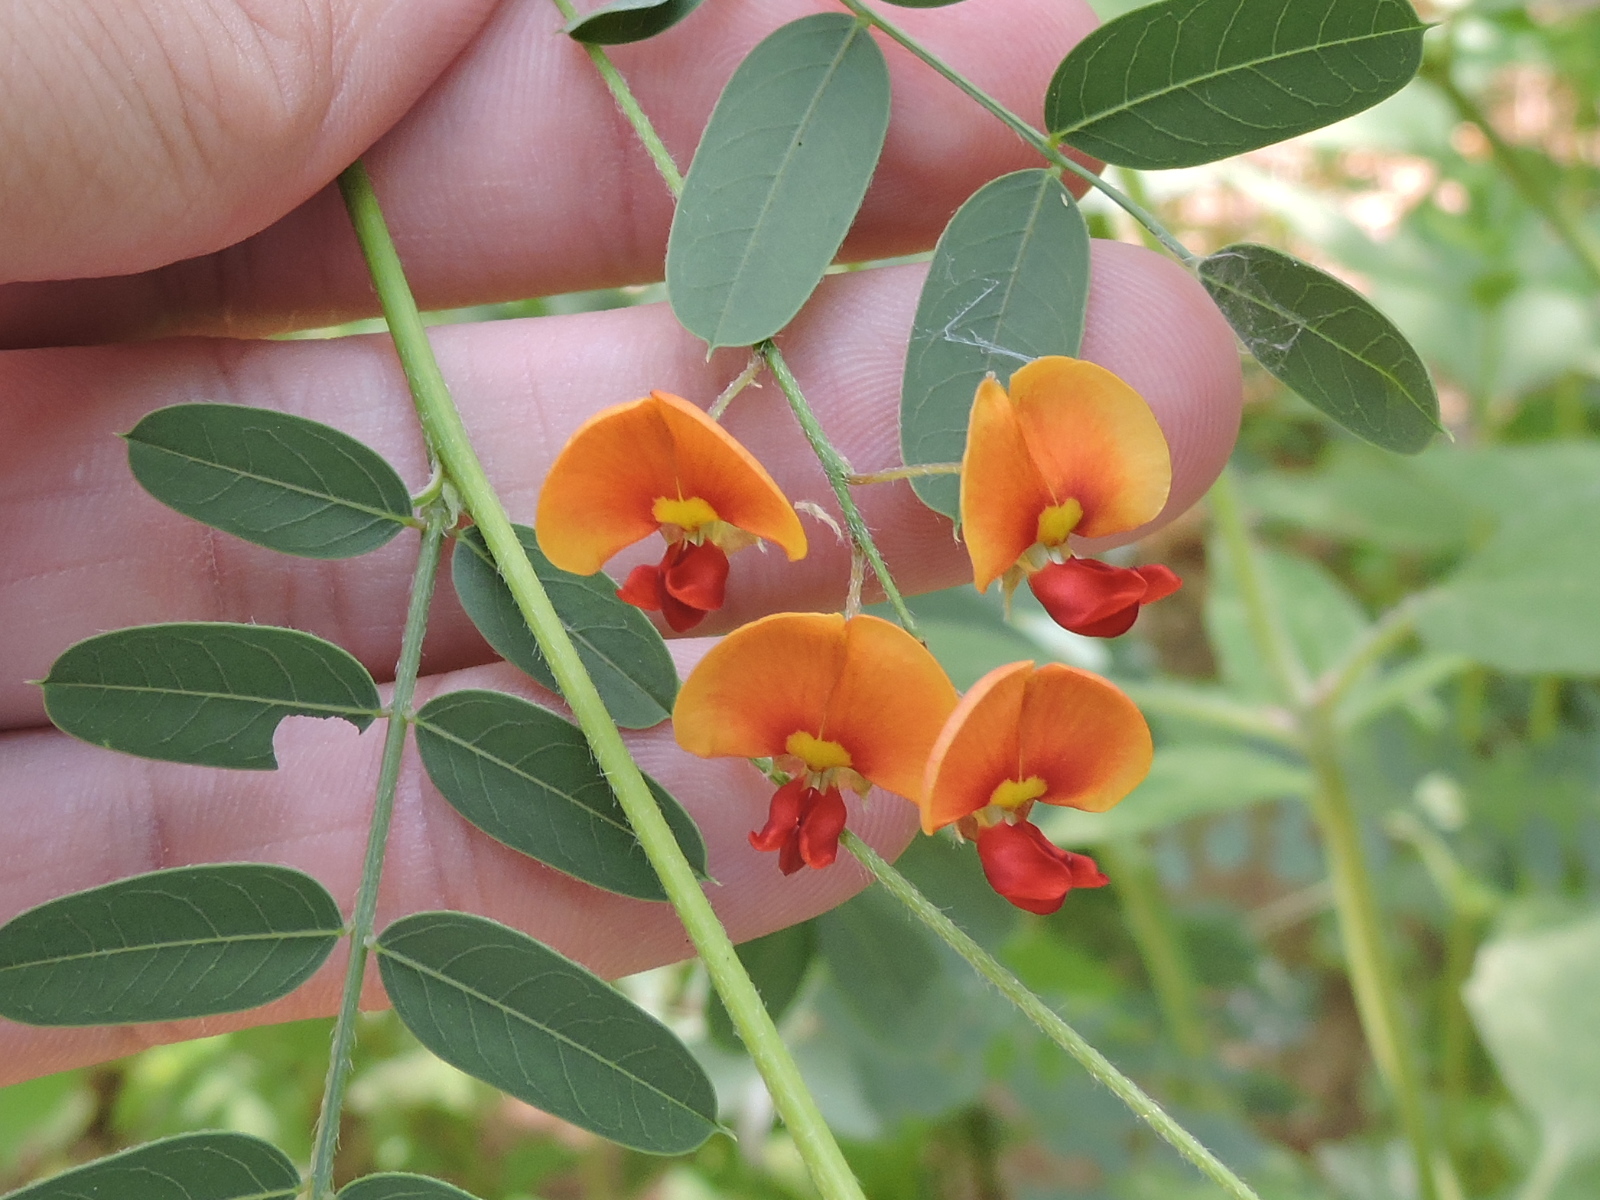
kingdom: Plantae
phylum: Tracheophyta
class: Magnoliopsida
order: Fabales
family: Fabaceae
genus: Sesbania
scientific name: Sesbania vesicaria
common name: Bagpod
